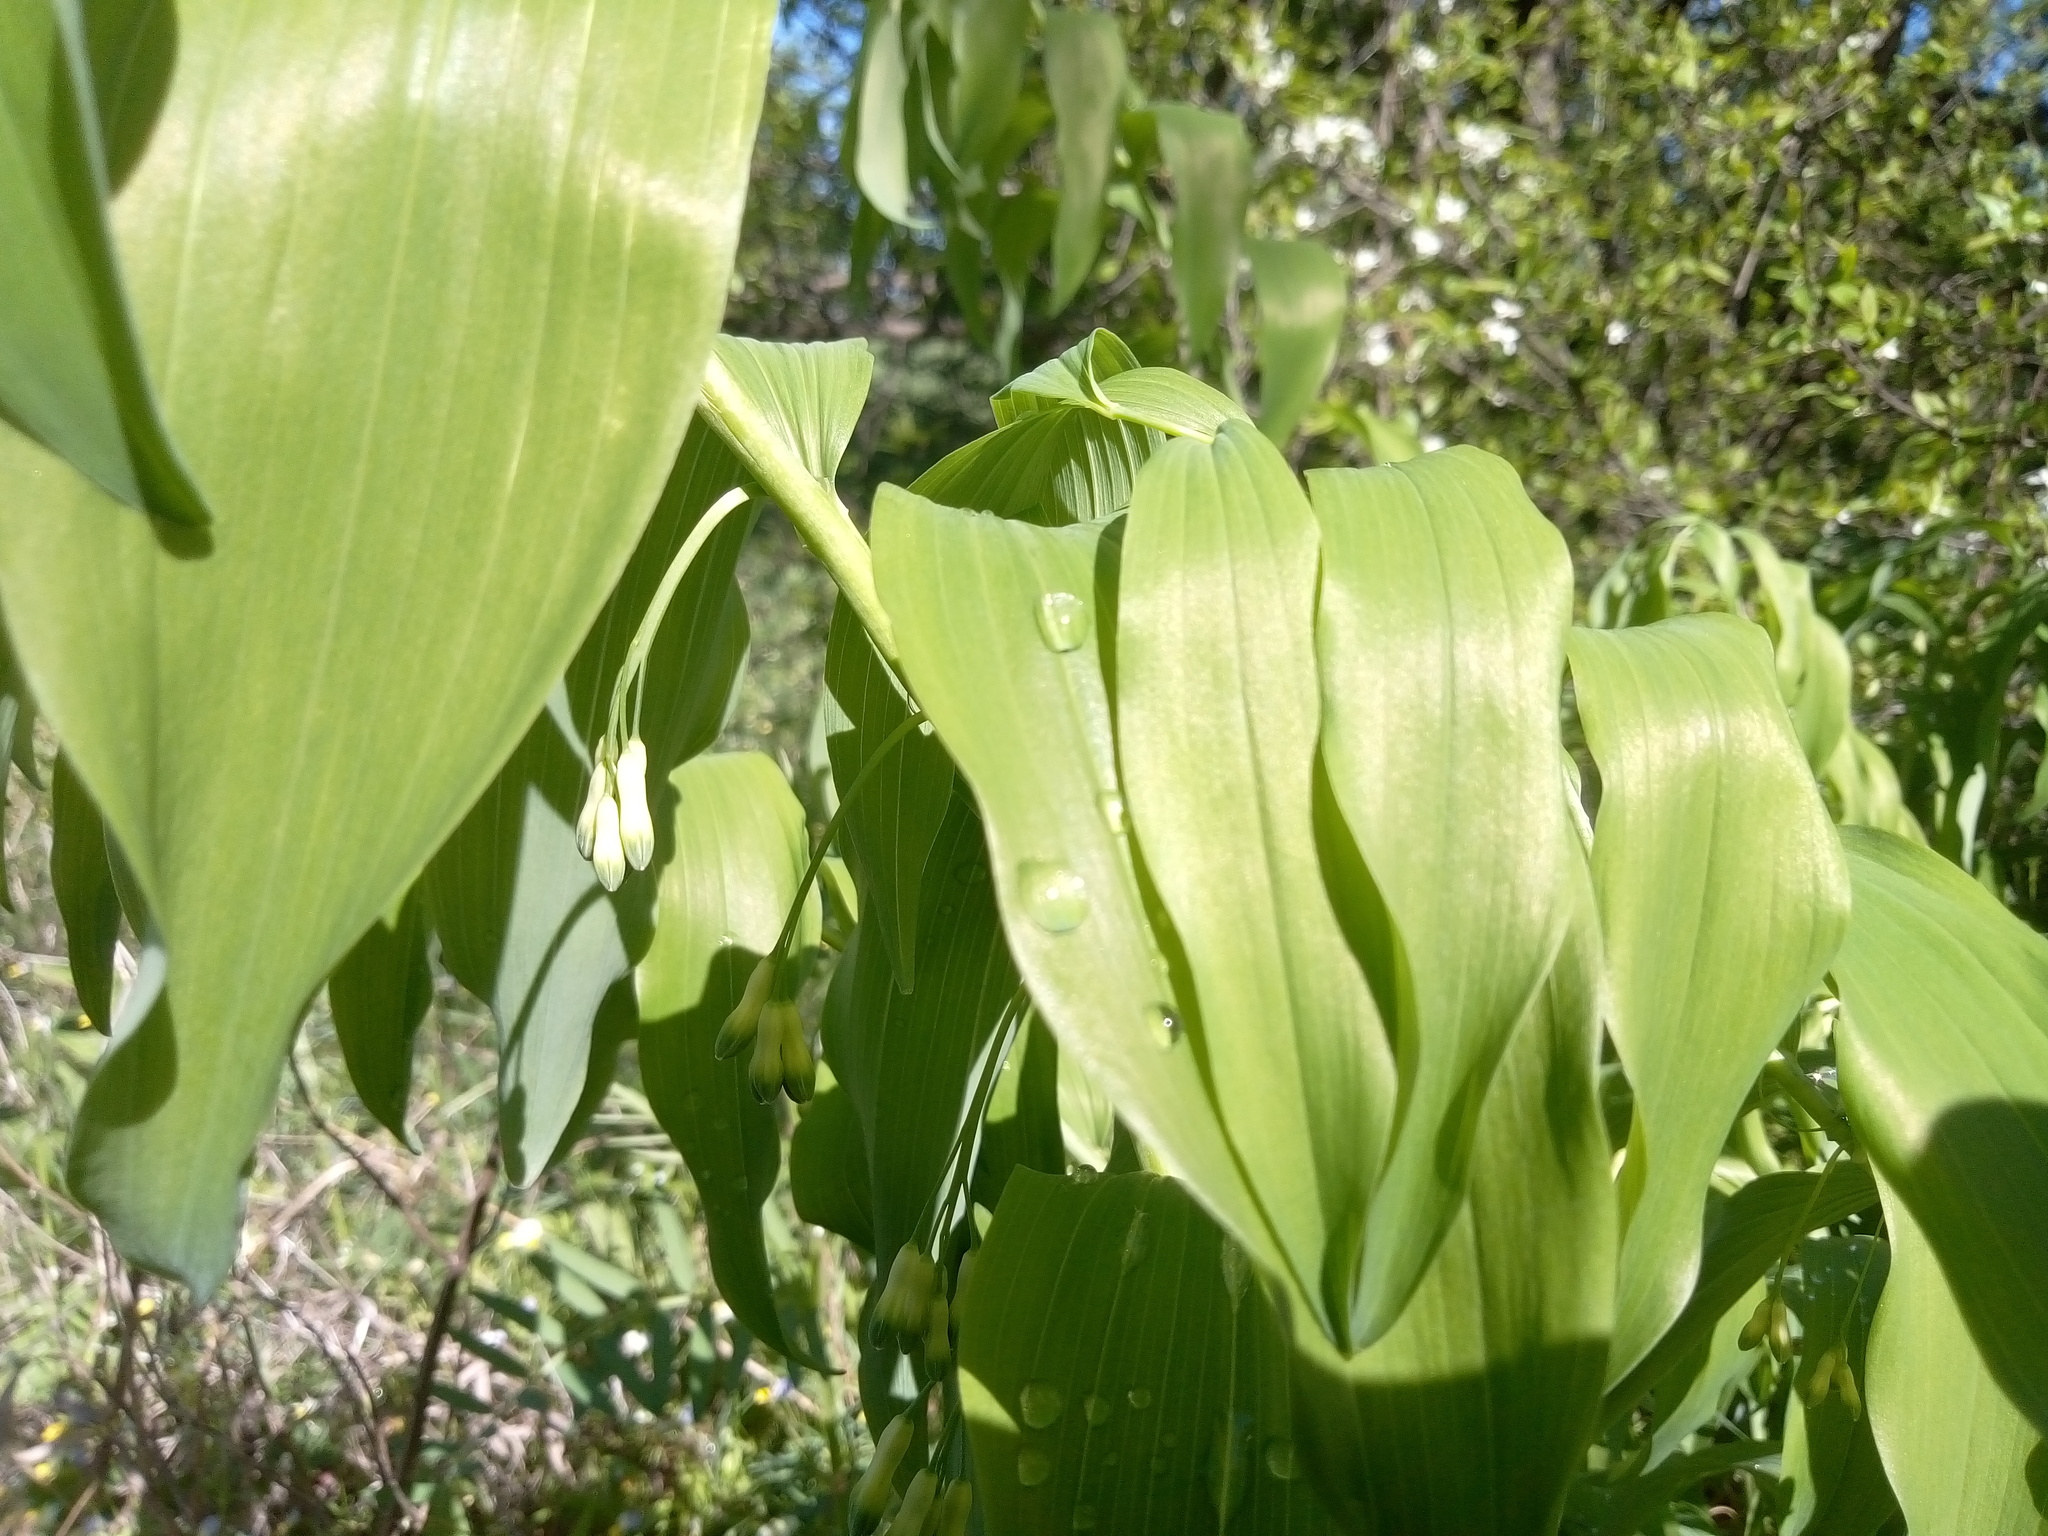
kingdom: Plantae
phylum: Tracheophyta
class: Liliopsida
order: Asparagales
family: Asparagaceae
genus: Polygonatum
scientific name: Polygonatum multiflorum
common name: Solomon's-seal
